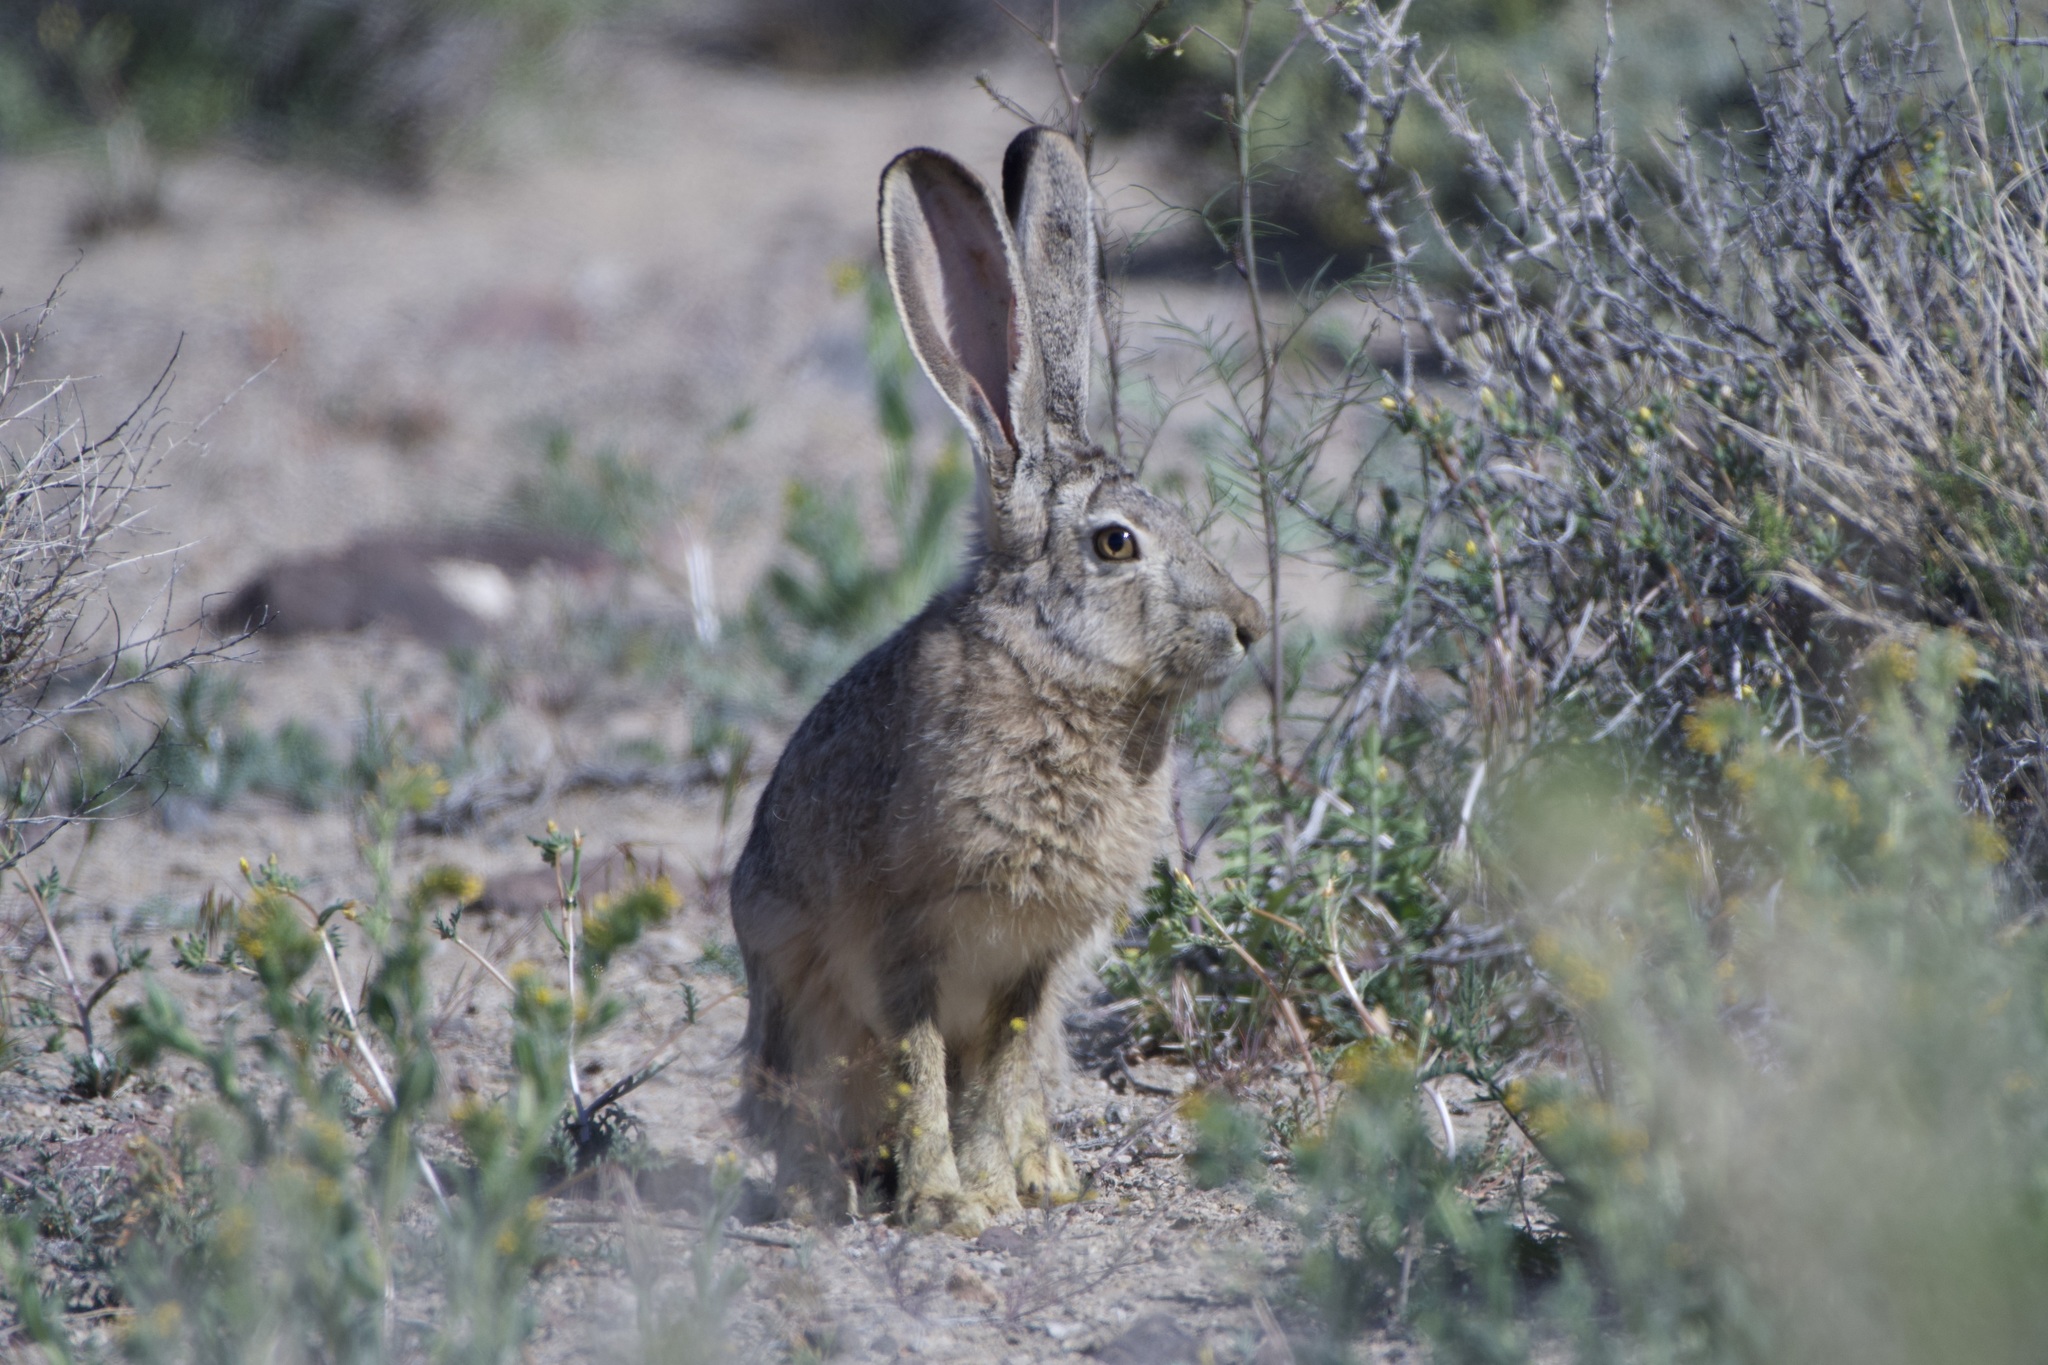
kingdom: Animalia
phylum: Chordata
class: Mammalia
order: Lagomorpha
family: Leporidae
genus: Lepus
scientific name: Lepus californicus
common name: Black-tailed jackrabbit
